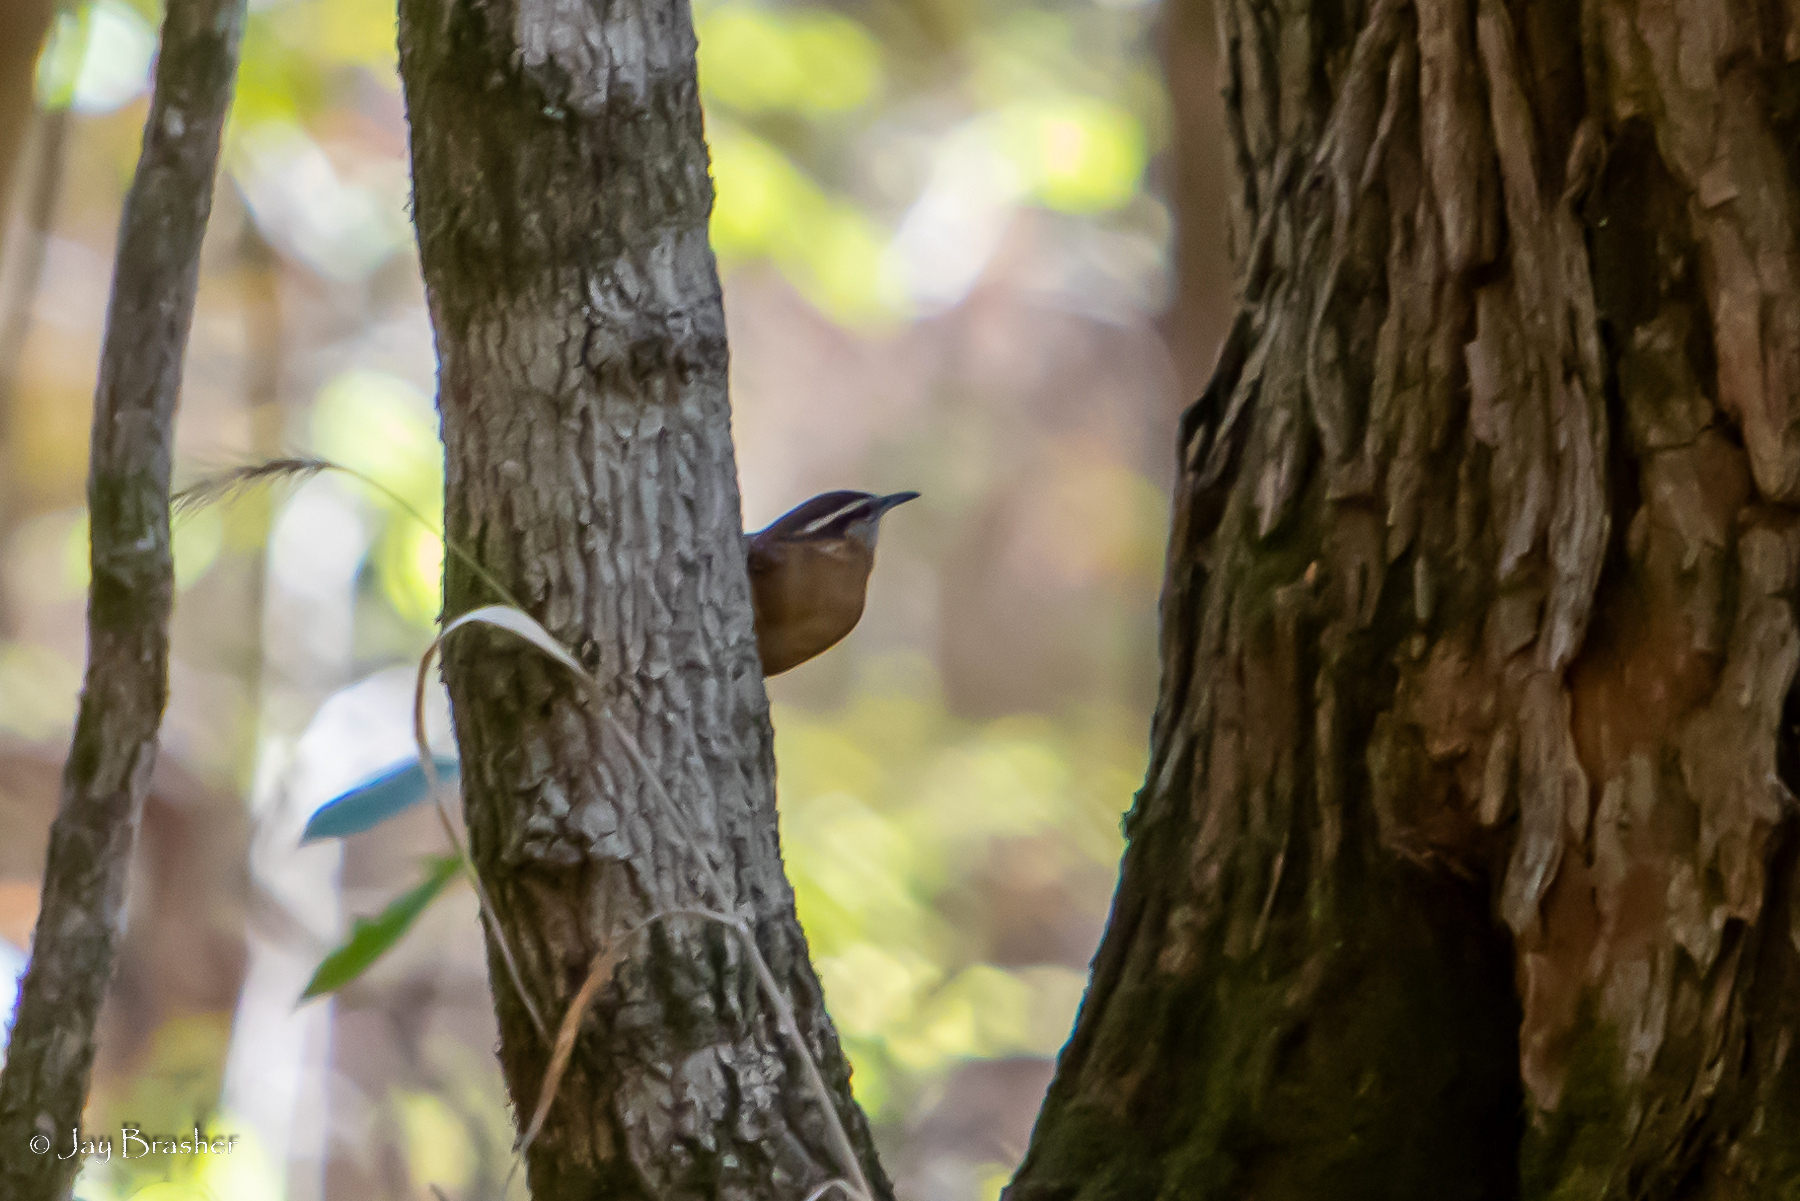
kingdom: Animalia
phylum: Chordata
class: Aves
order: Passeriformes
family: Troglodytidae
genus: Thryothorus
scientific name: Thryothorus ludovicianus
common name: Carolina wren
